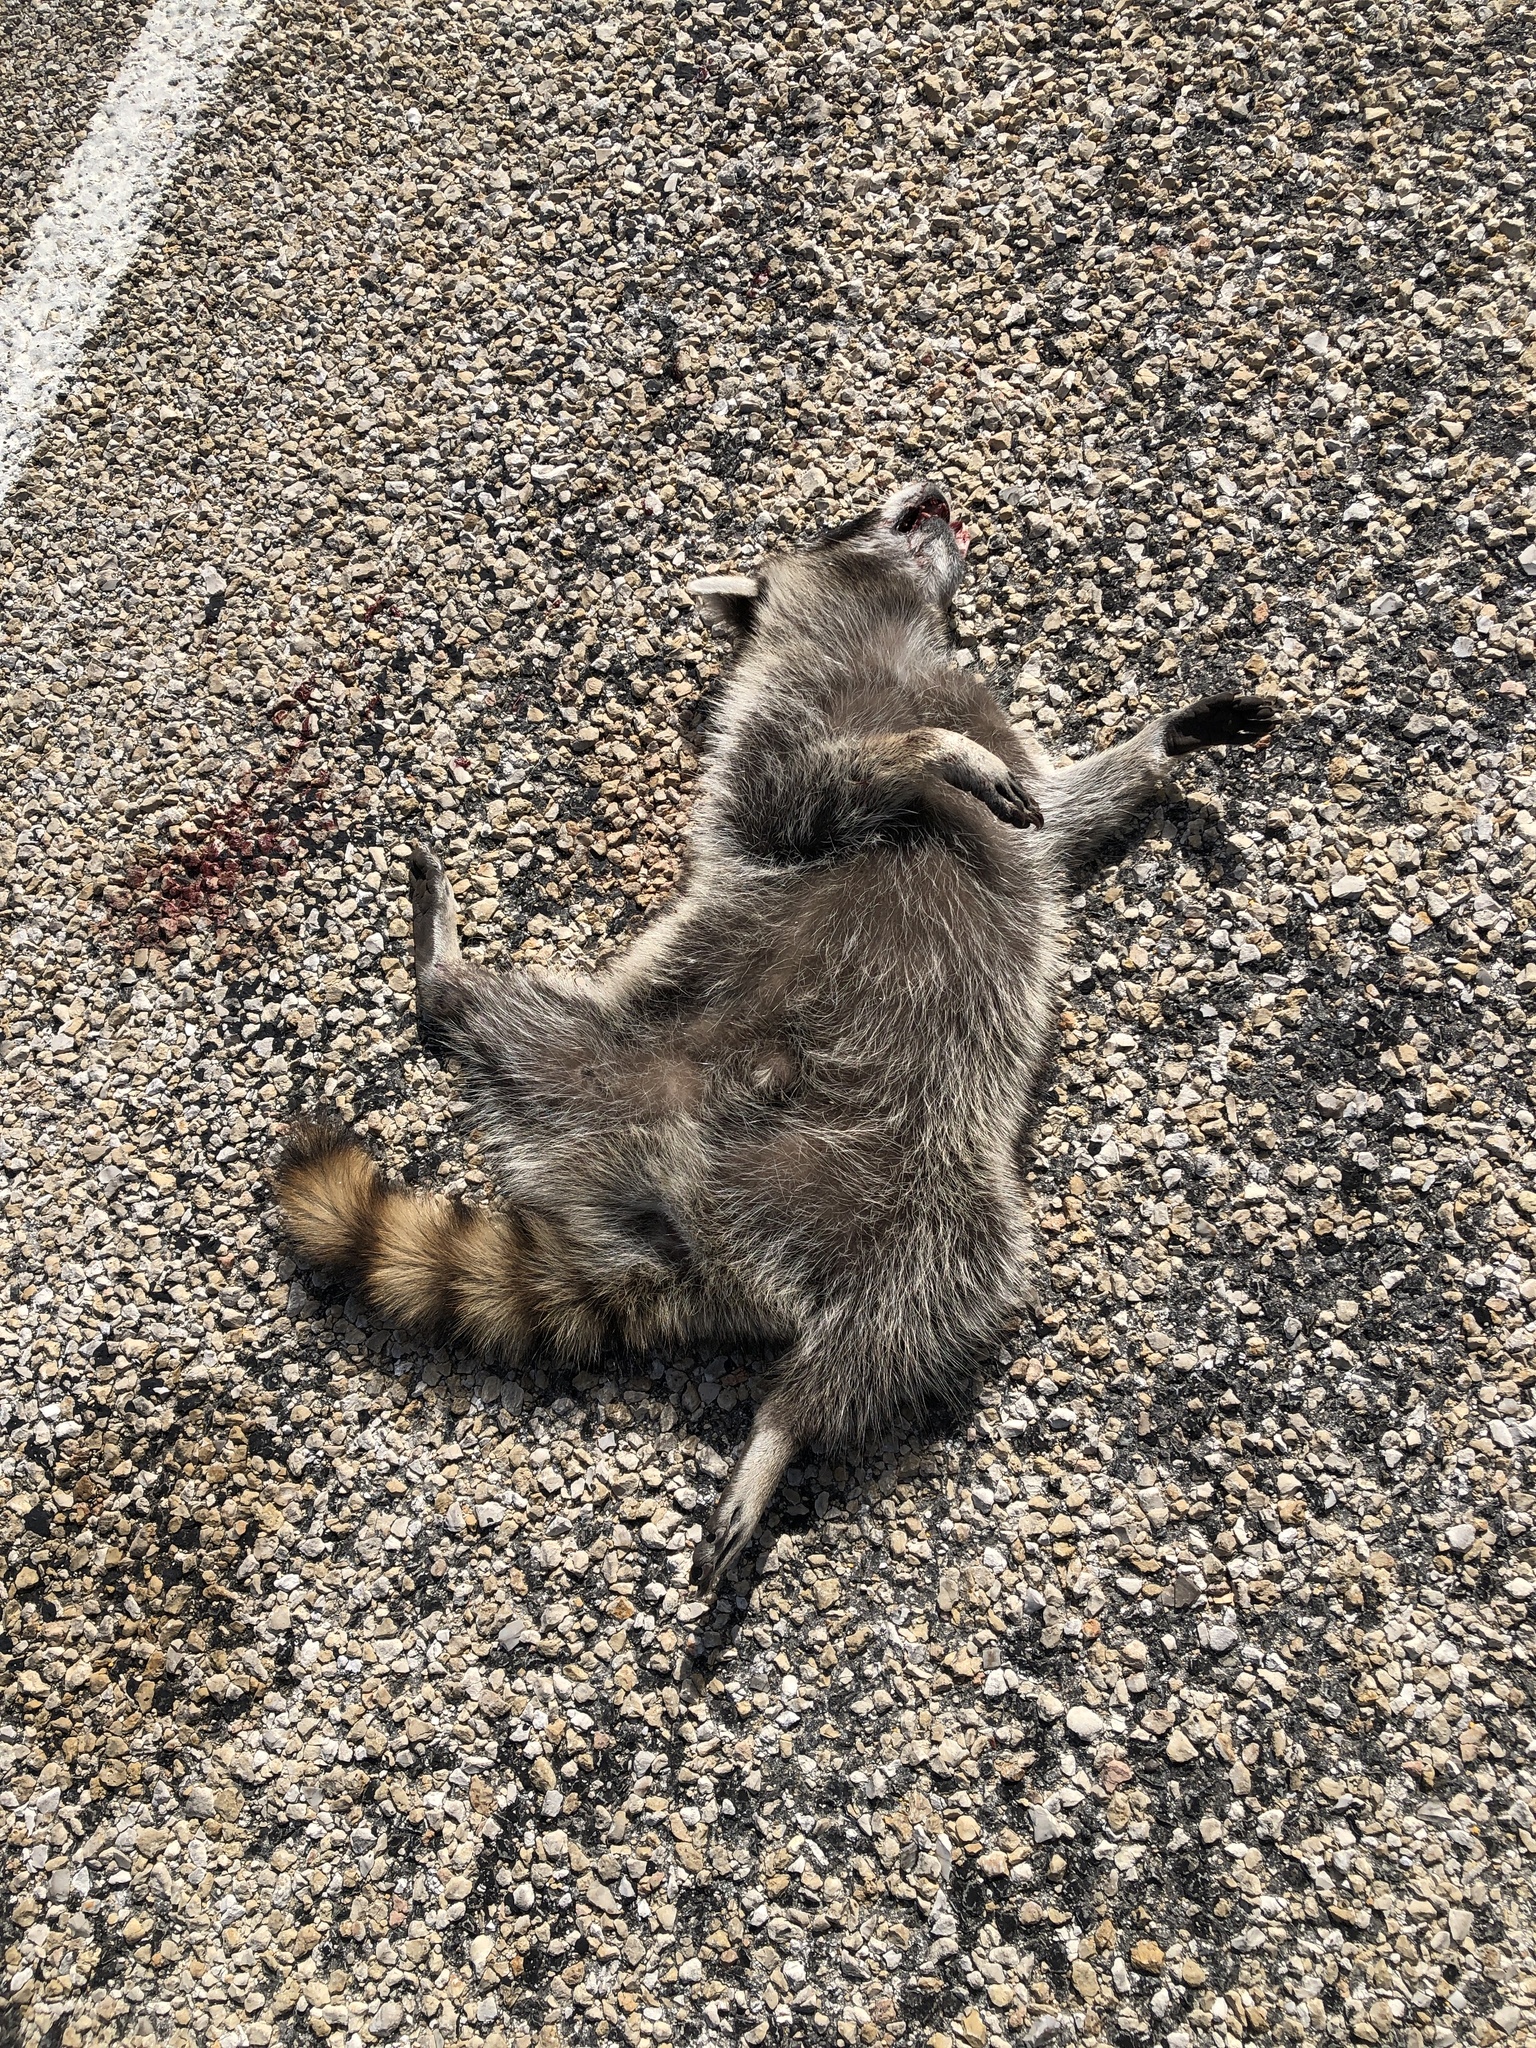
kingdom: Animalia
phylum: Chordata
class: Mammalia
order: Carnivora
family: Procyonidae
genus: Procyon
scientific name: Procyon lotor
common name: Raccoon
